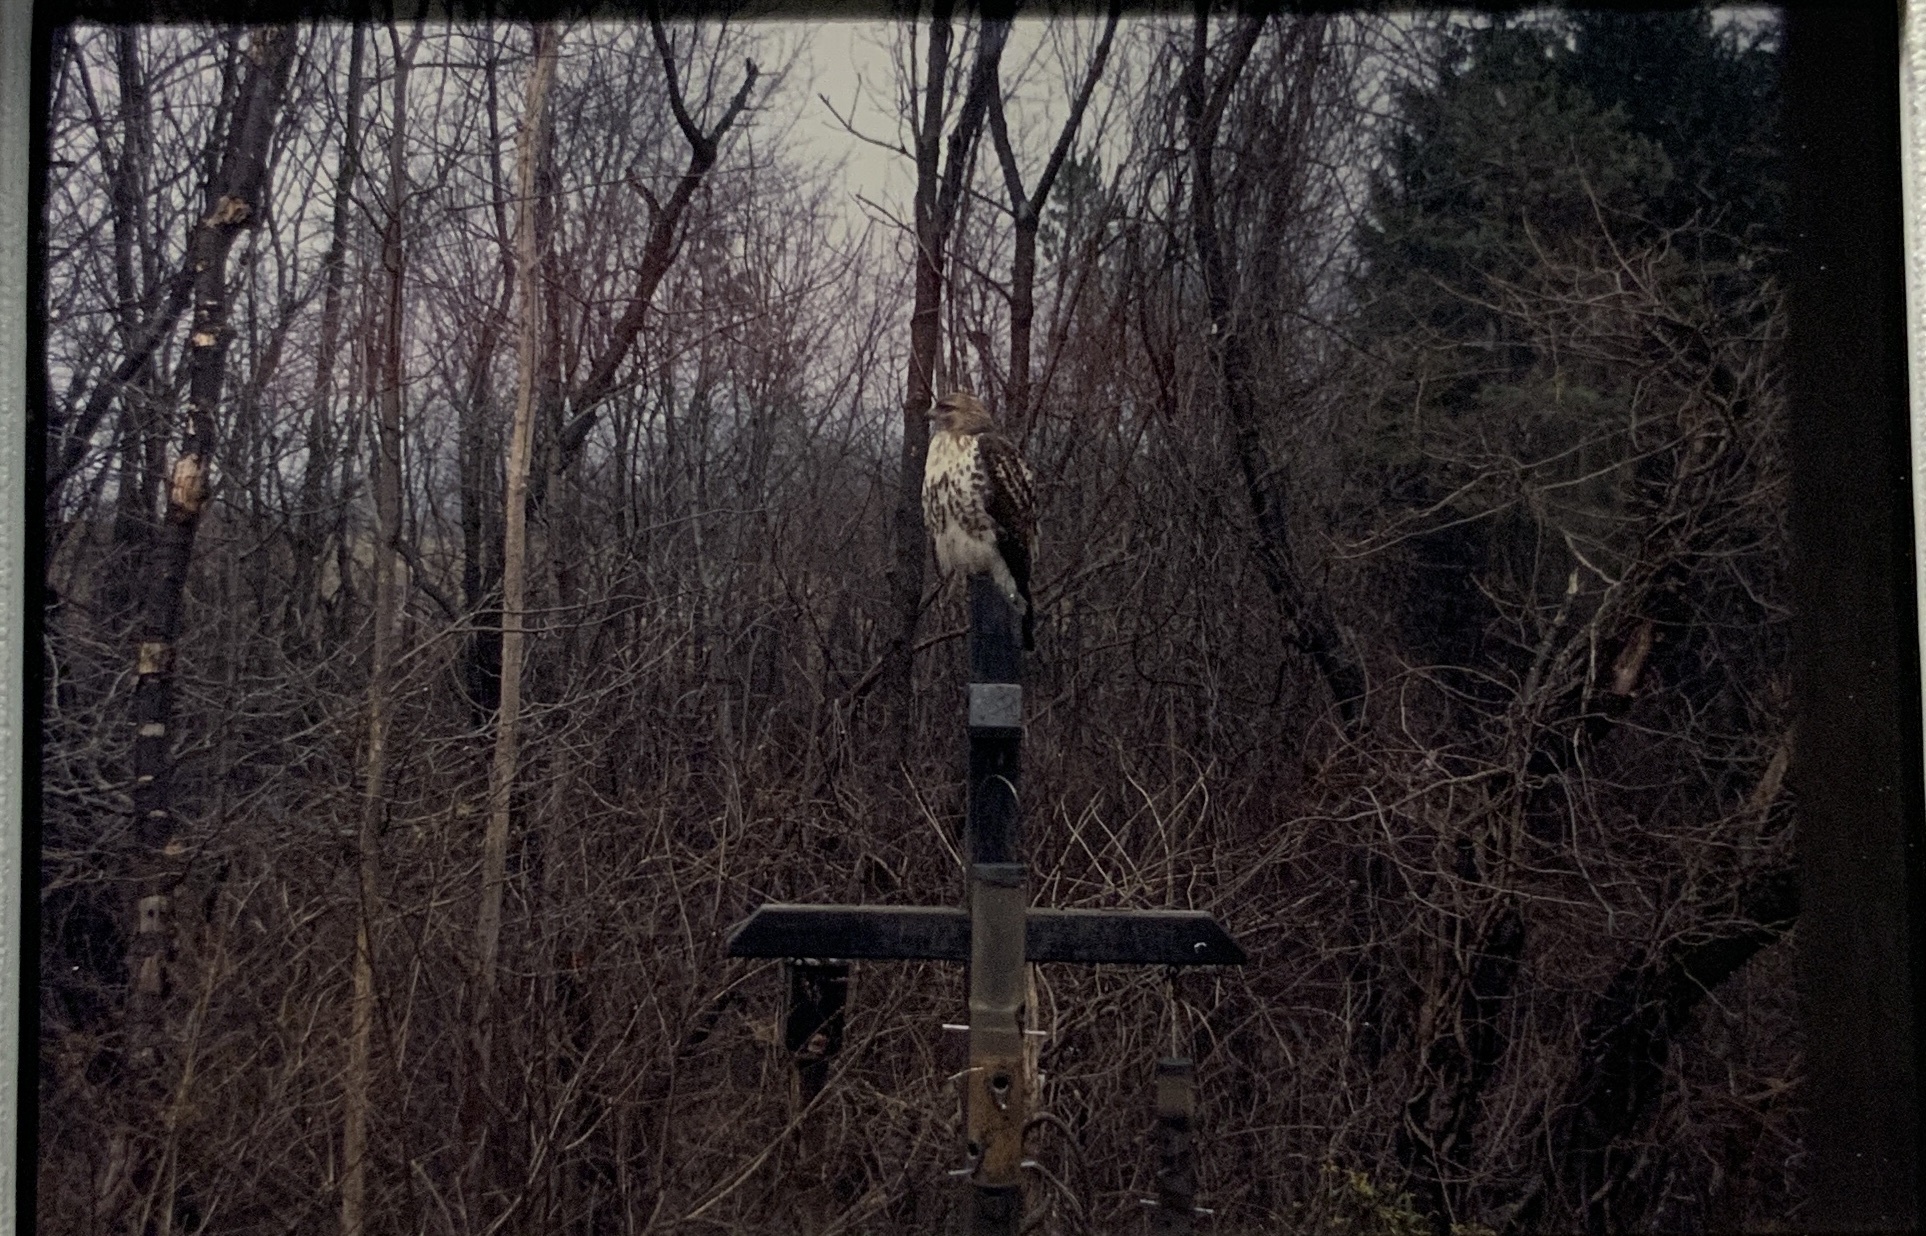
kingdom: Animalia
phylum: Chordata
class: Aves
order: Accipitriformes
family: Accipitridae
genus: Buteo
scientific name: Buteo jamaicensis
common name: Red-tailed hawk
